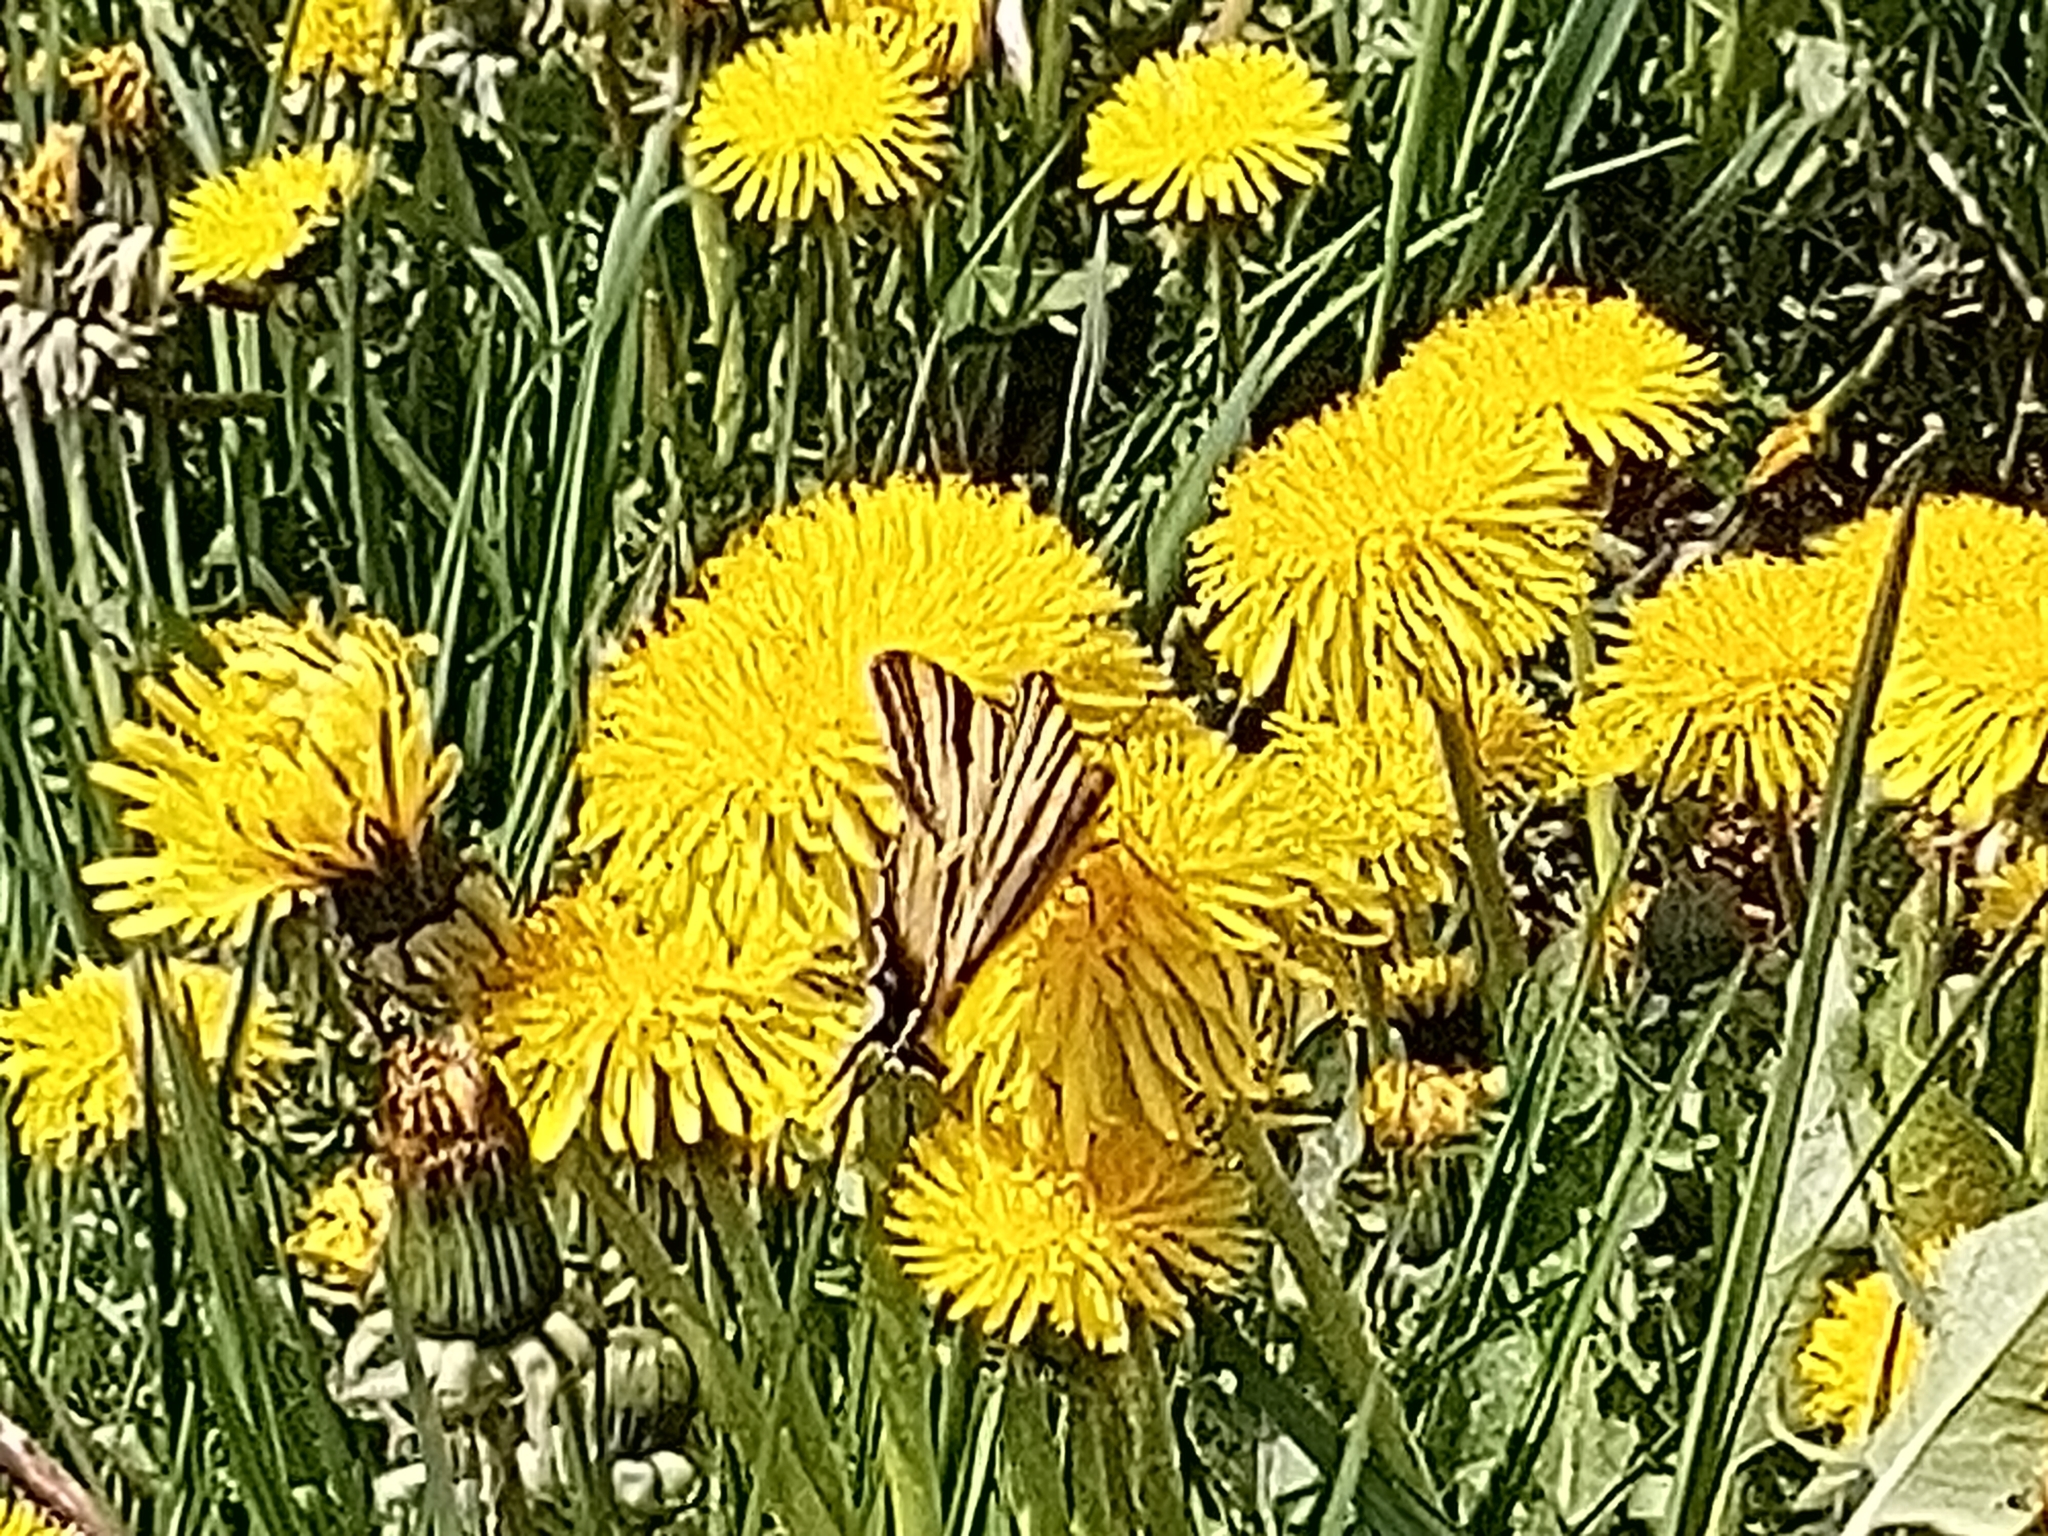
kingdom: Animalia
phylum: Arthropoda
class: Insecta
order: Lepidoptera
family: Papilionidae
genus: Iphiclides
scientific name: Iphiclides podalirius
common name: Scarce swallowtail
